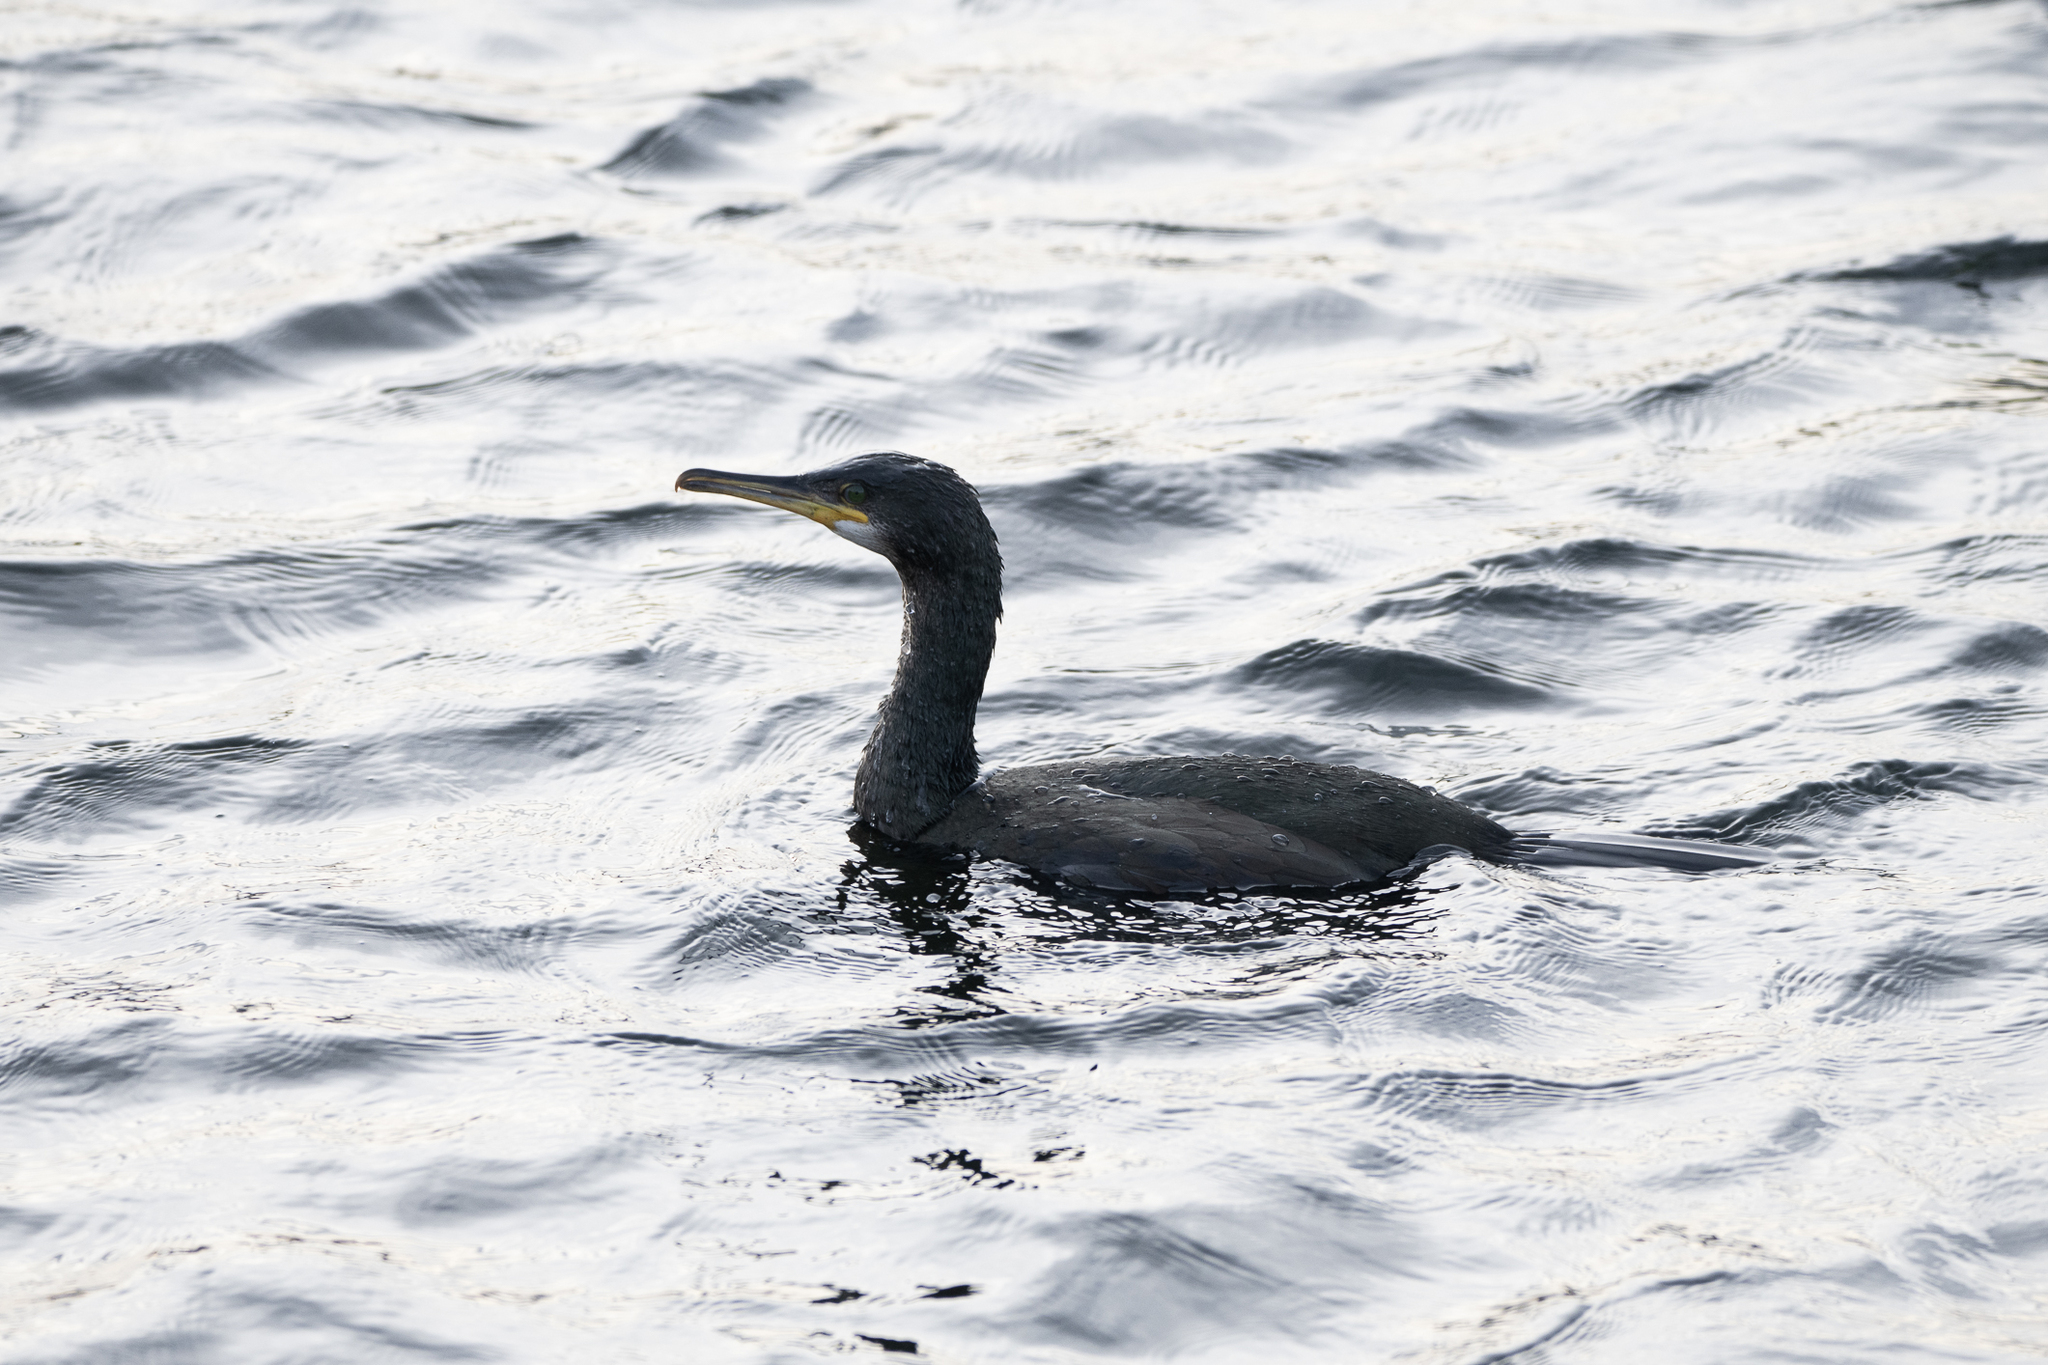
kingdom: Animalia
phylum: Chordata
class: Aves
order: Suliformes
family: Phalacrocoracidae
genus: Phalacrocorax
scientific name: Phalacrocorax aristotelis
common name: European shag
